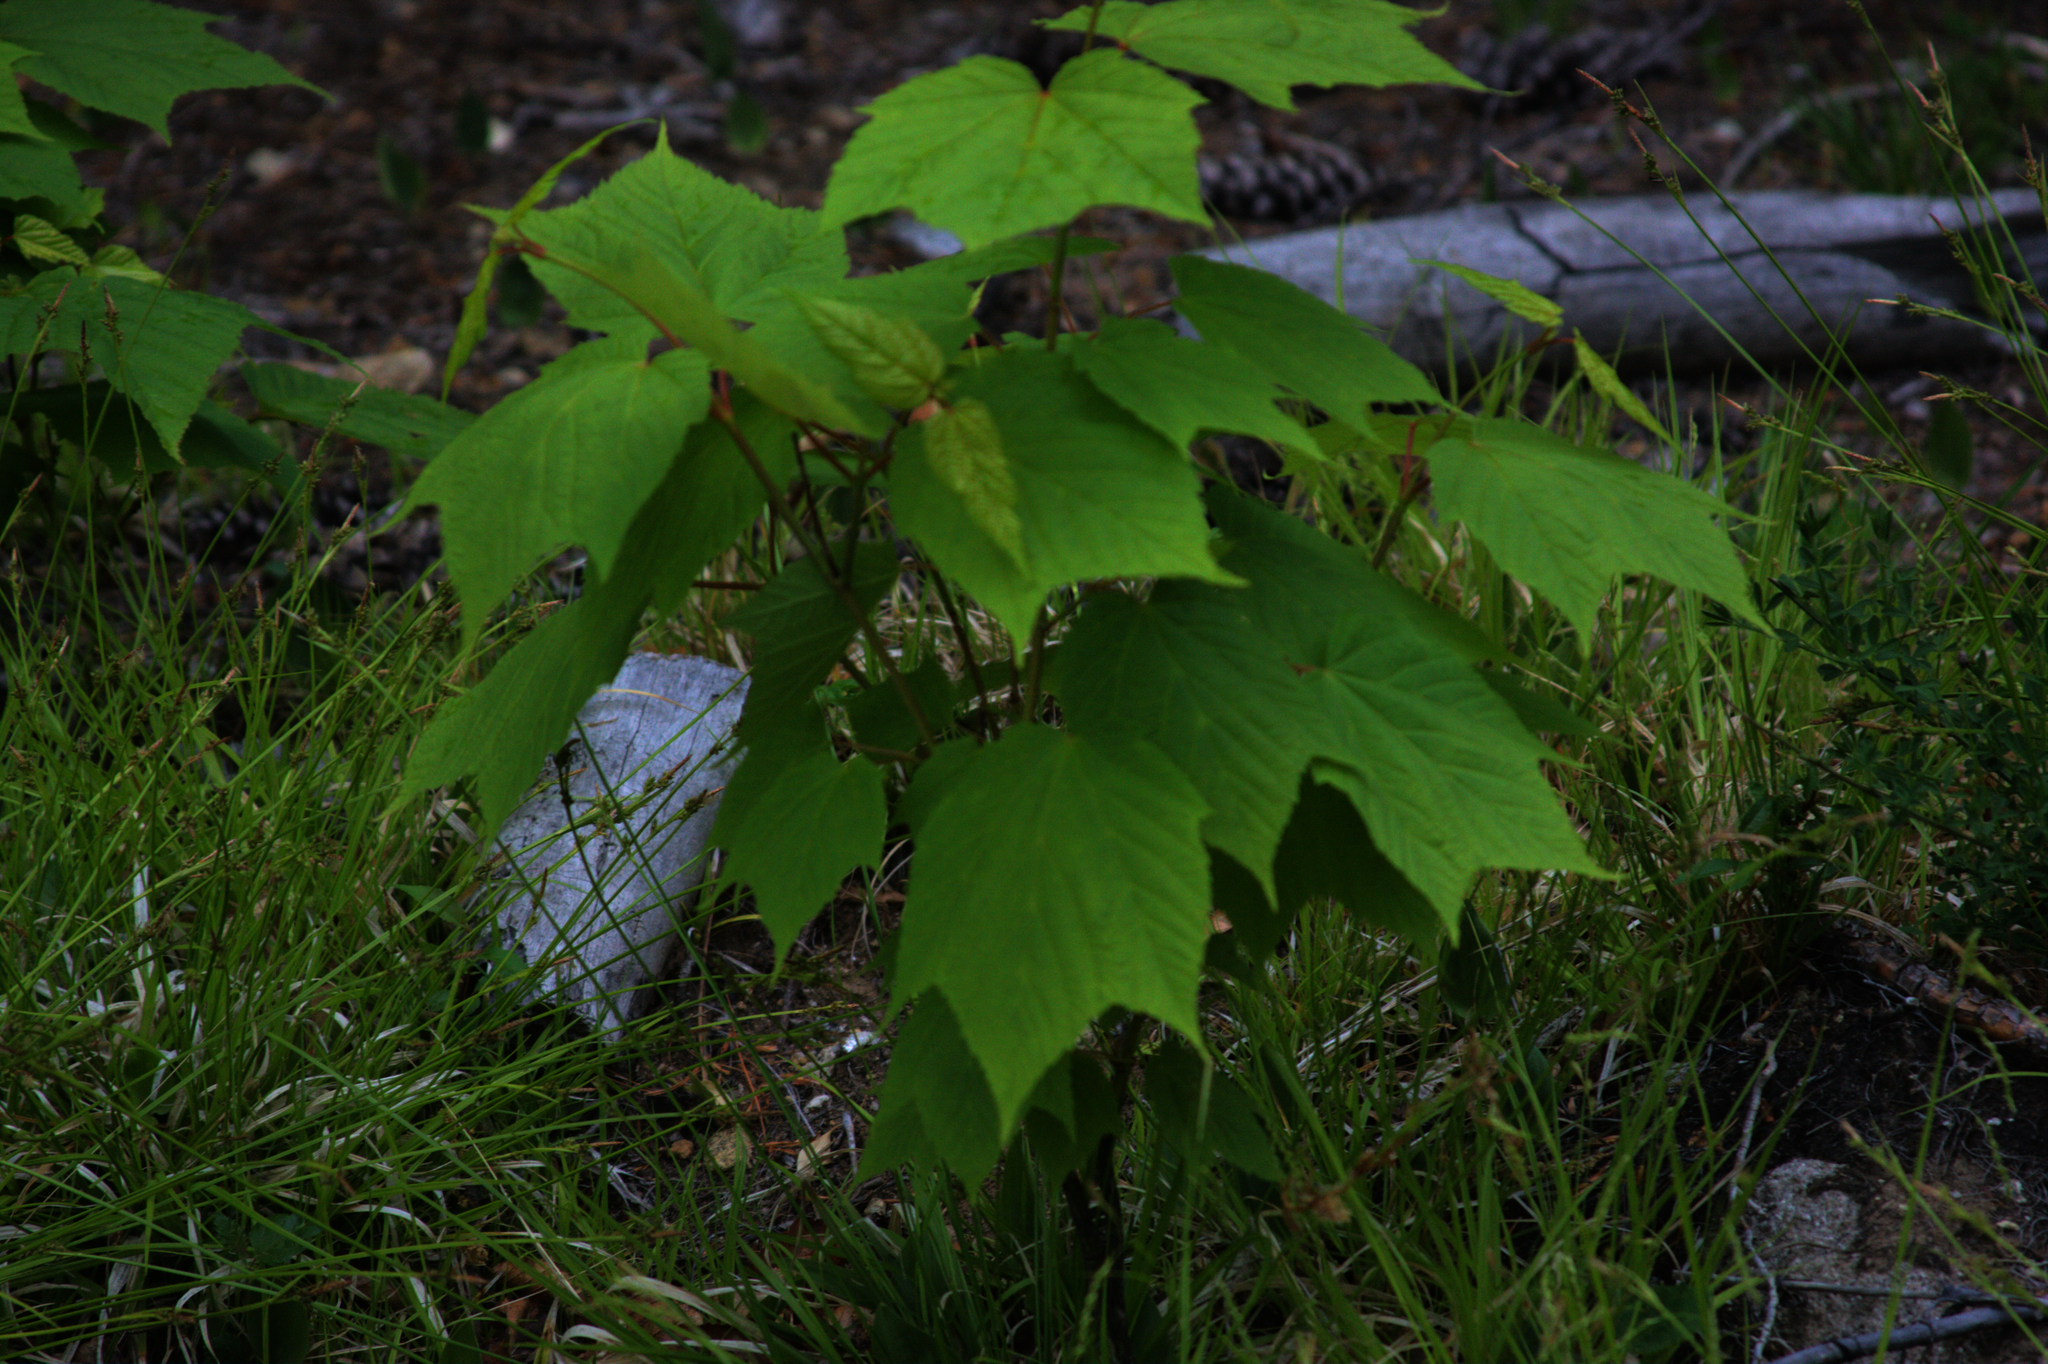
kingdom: Plantae
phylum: Tracheophyta
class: Magnoliopsida
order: Sapindales
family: Sapindaceae
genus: Acer
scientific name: Acer pensylvanicum
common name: Moosewood
